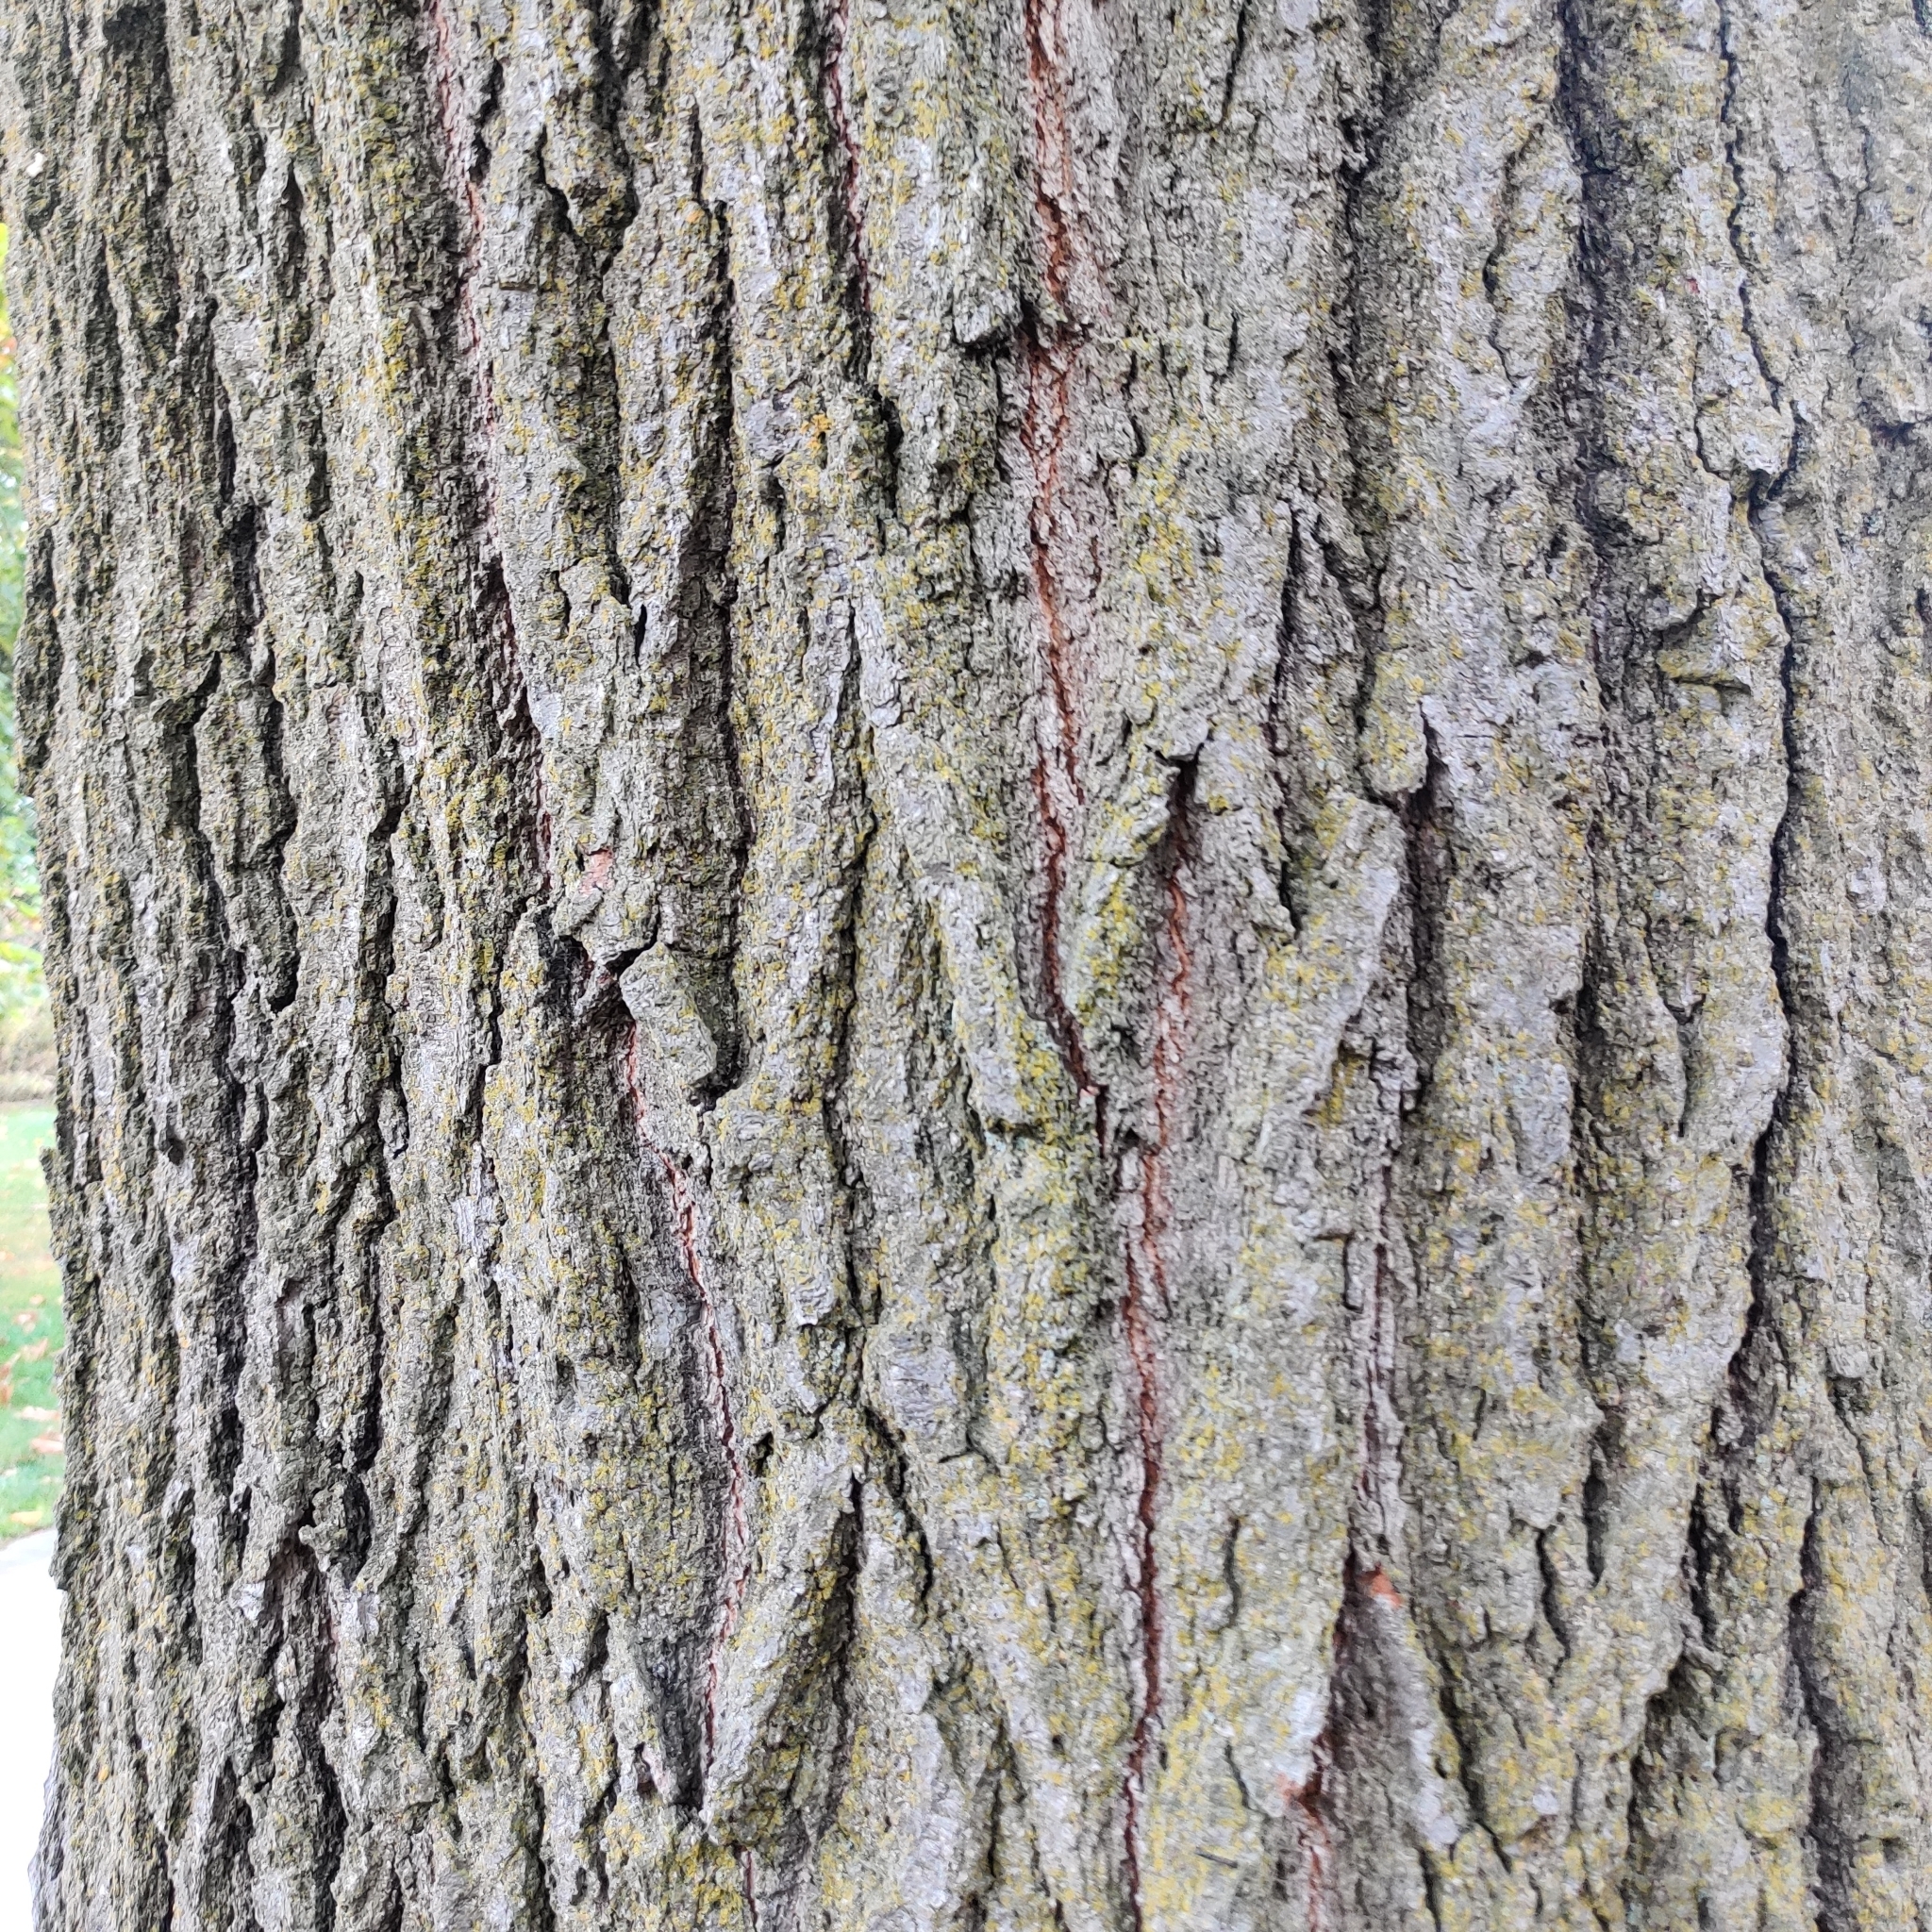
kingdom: Plantae
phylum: Tracheophyta
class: Magnoliopsida
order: Fagales
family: Fagaceae
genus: Quercus
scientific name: Quercus rubra
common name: Red oak
